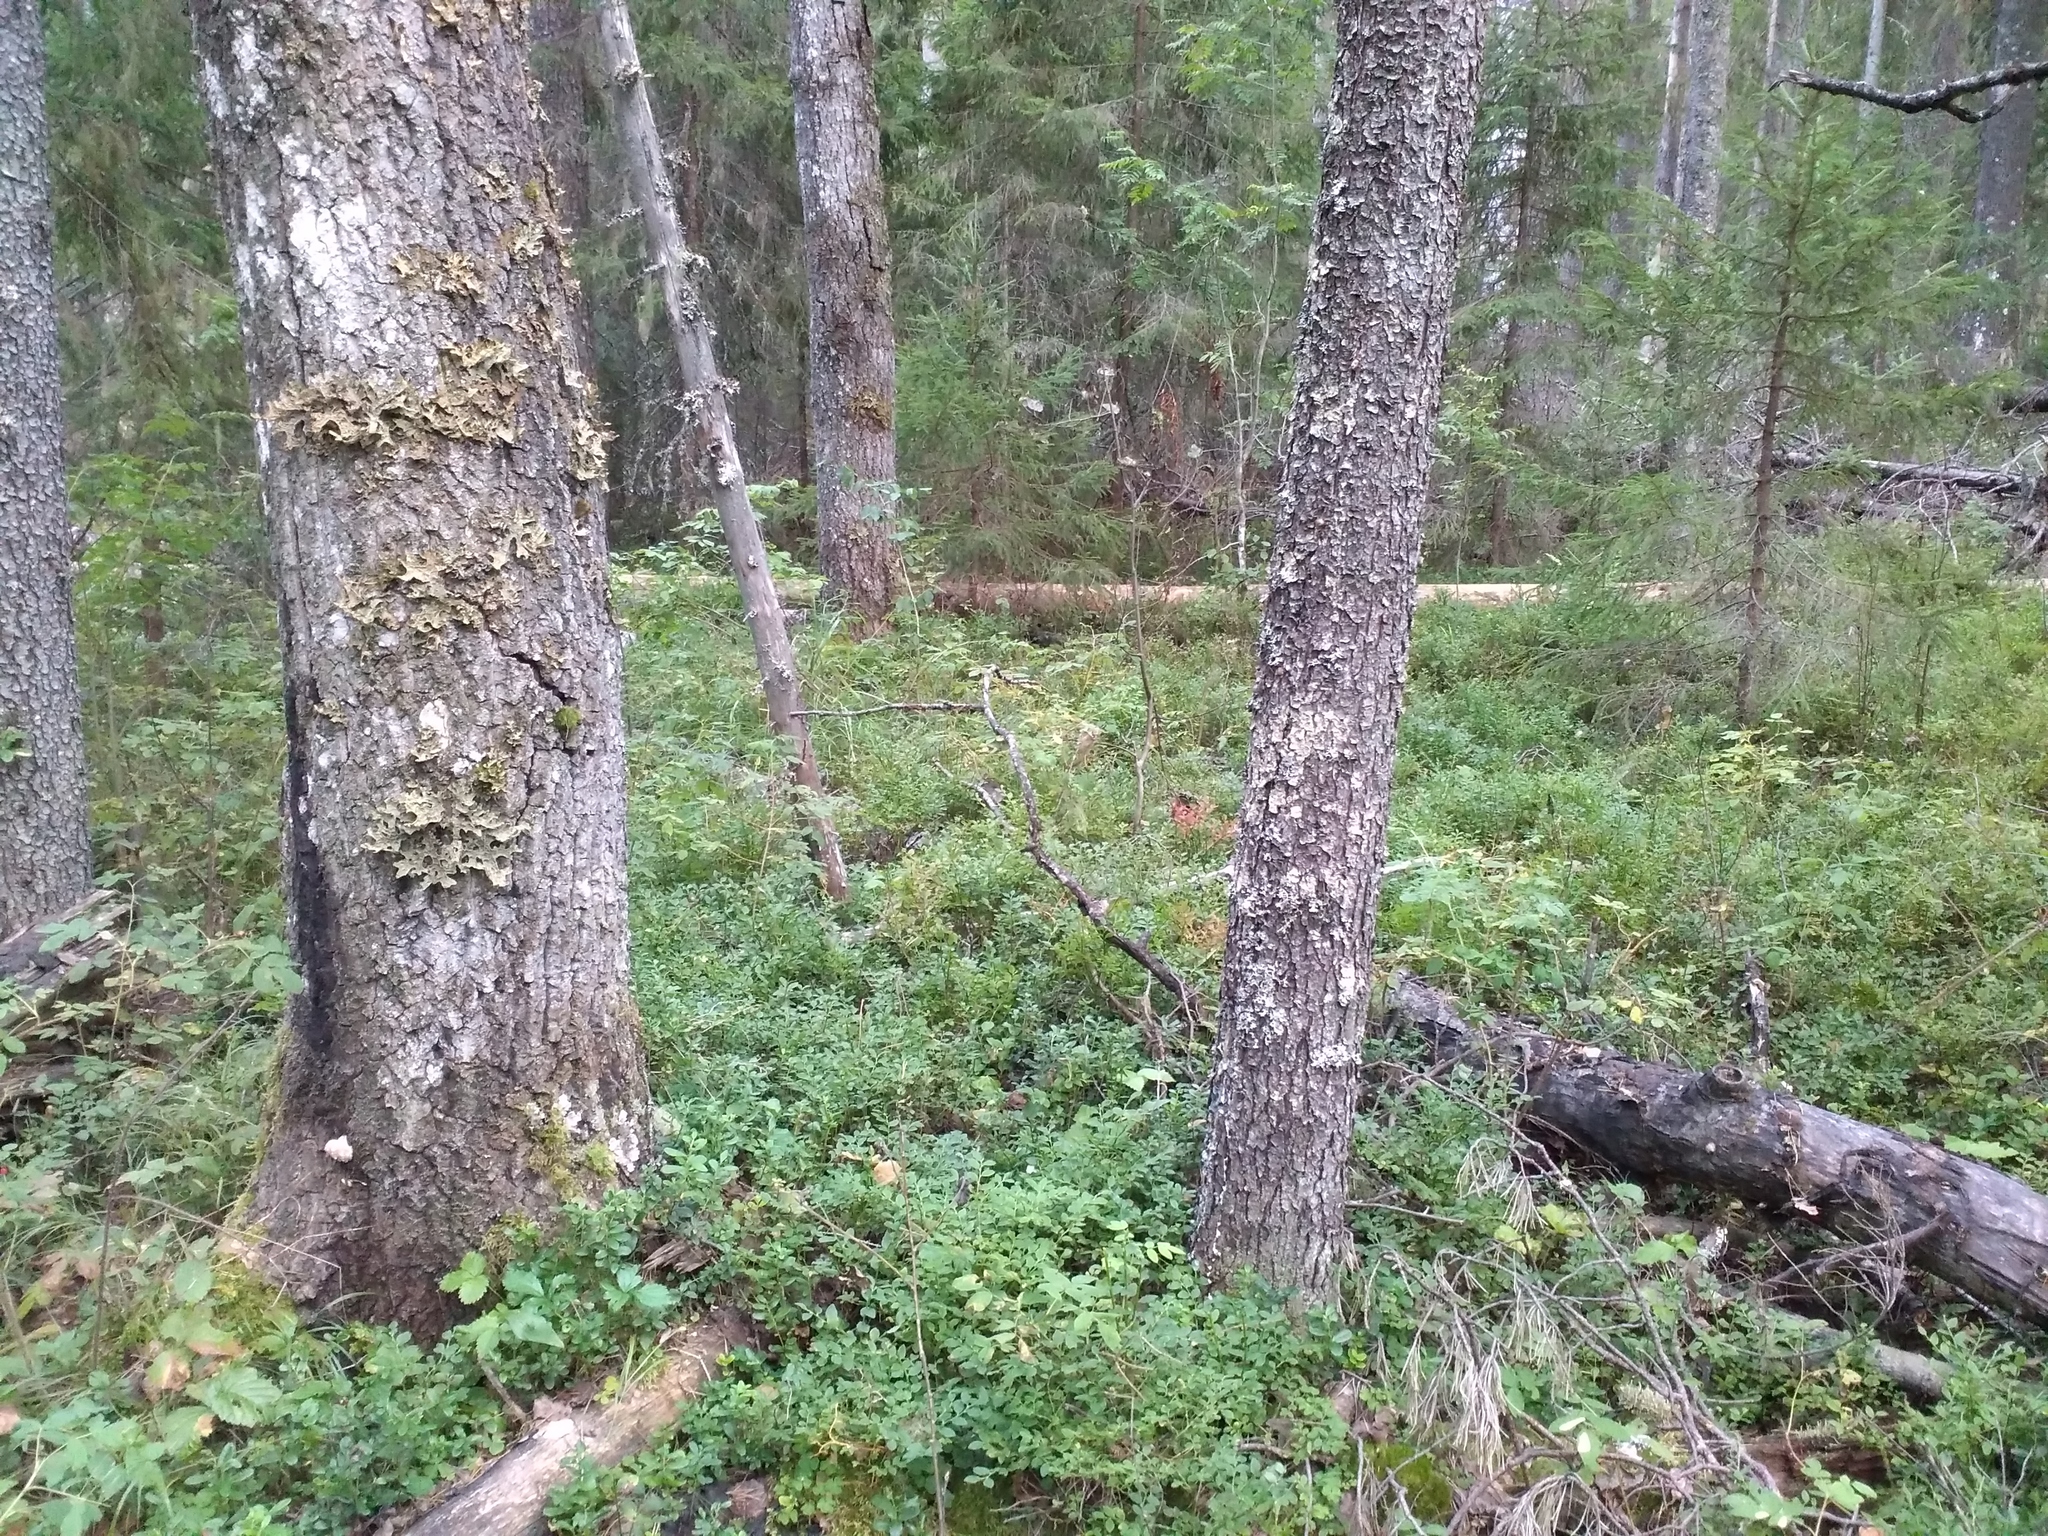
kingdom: Fungi
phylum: Ascomycota
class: Lecanoromycetes
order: Peltigerales
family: Lobariaceae
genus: Lobaria
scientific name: Lobaria pulmonaria
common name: Lungwort
